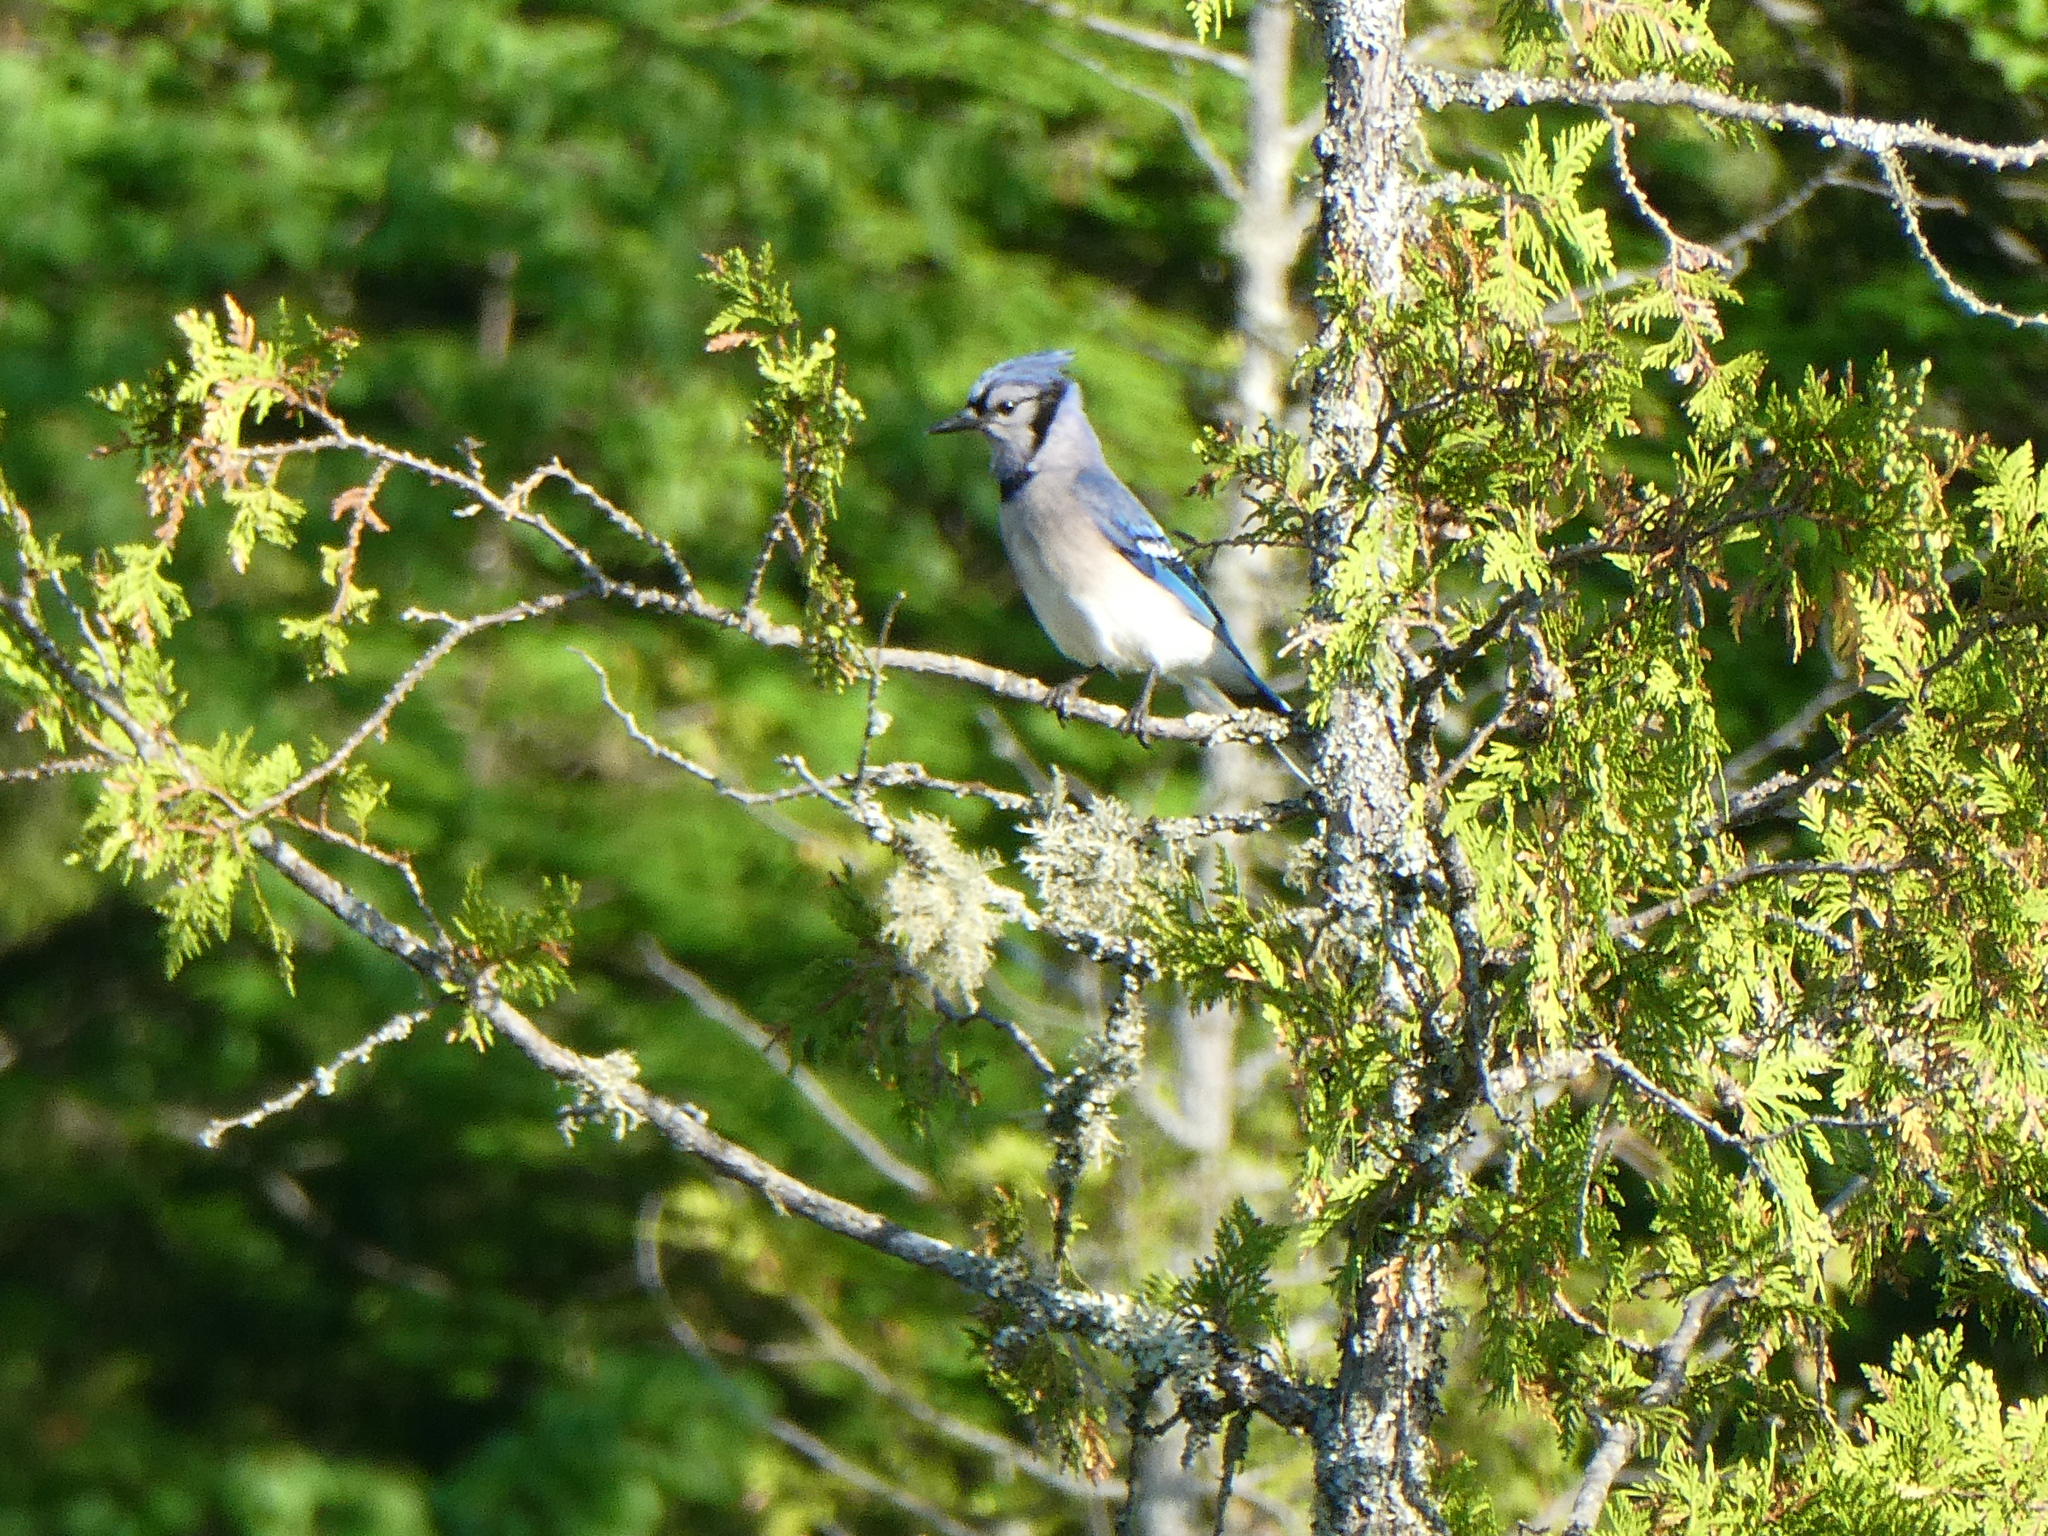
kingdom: Animalia
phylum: Chordata
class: Aves
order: Passeriformes
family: Corvidae
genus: Cyanocitta
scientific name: Cyanocitta cristata
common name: Blue jay
